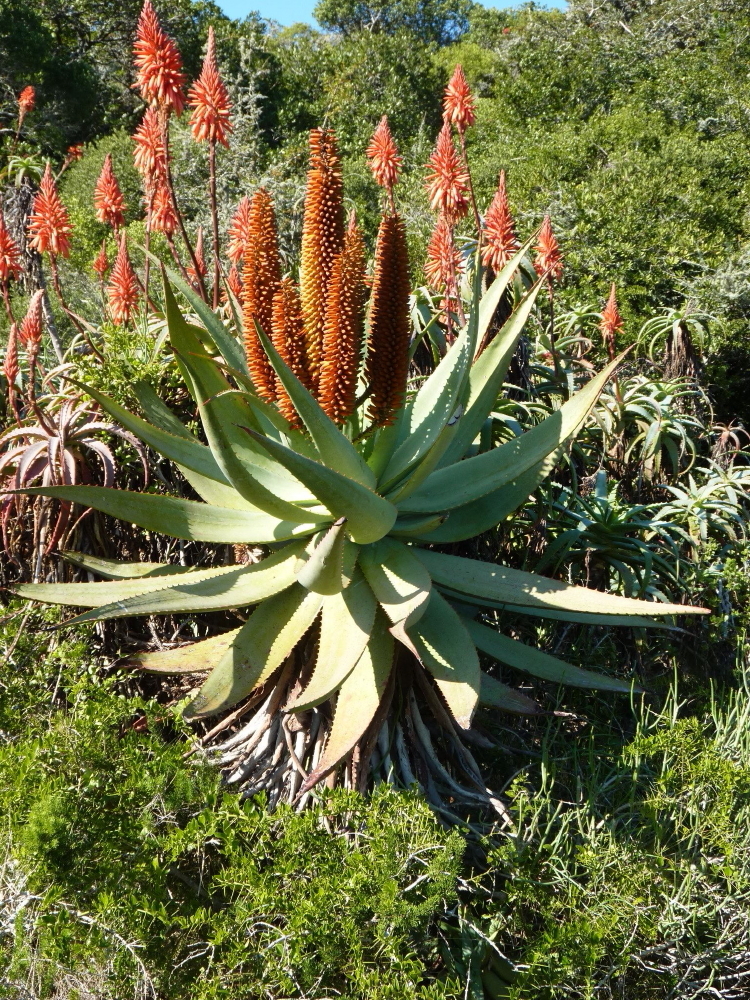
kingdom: Plantae
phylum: Tracheophyta
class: Liliopsida
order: Asparagales
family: Asphodelaceae
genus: Aloe
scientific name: Aloe ferox
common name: Bitter aloe
